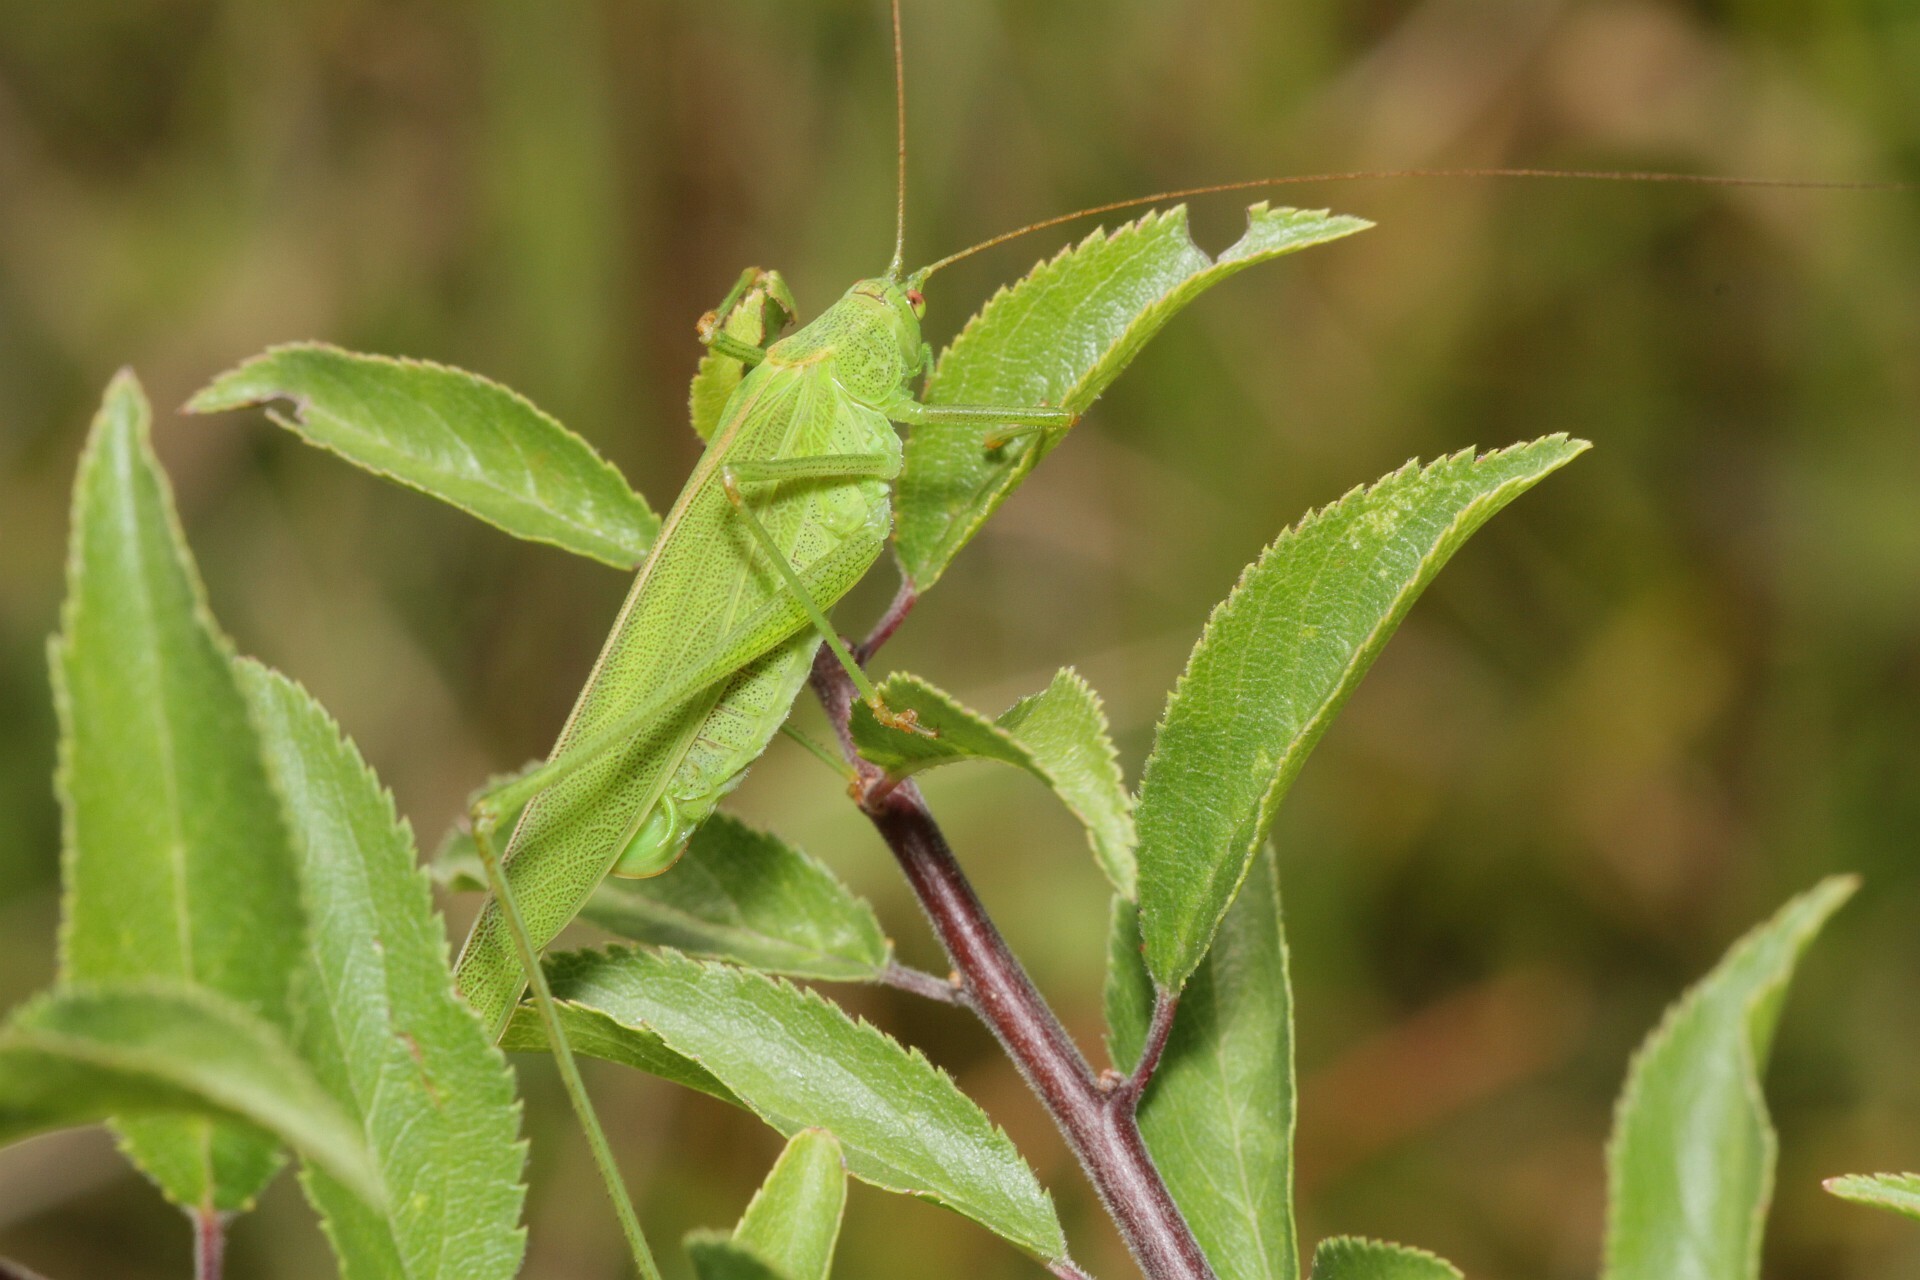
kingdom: Animalia
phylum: Arthropoda
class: Insecta
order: Orthoptera
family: Tettigoniidae
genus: Phaneroptera
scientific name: Phaneroptera falcata
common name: Sickle-bearing bush-cricket
